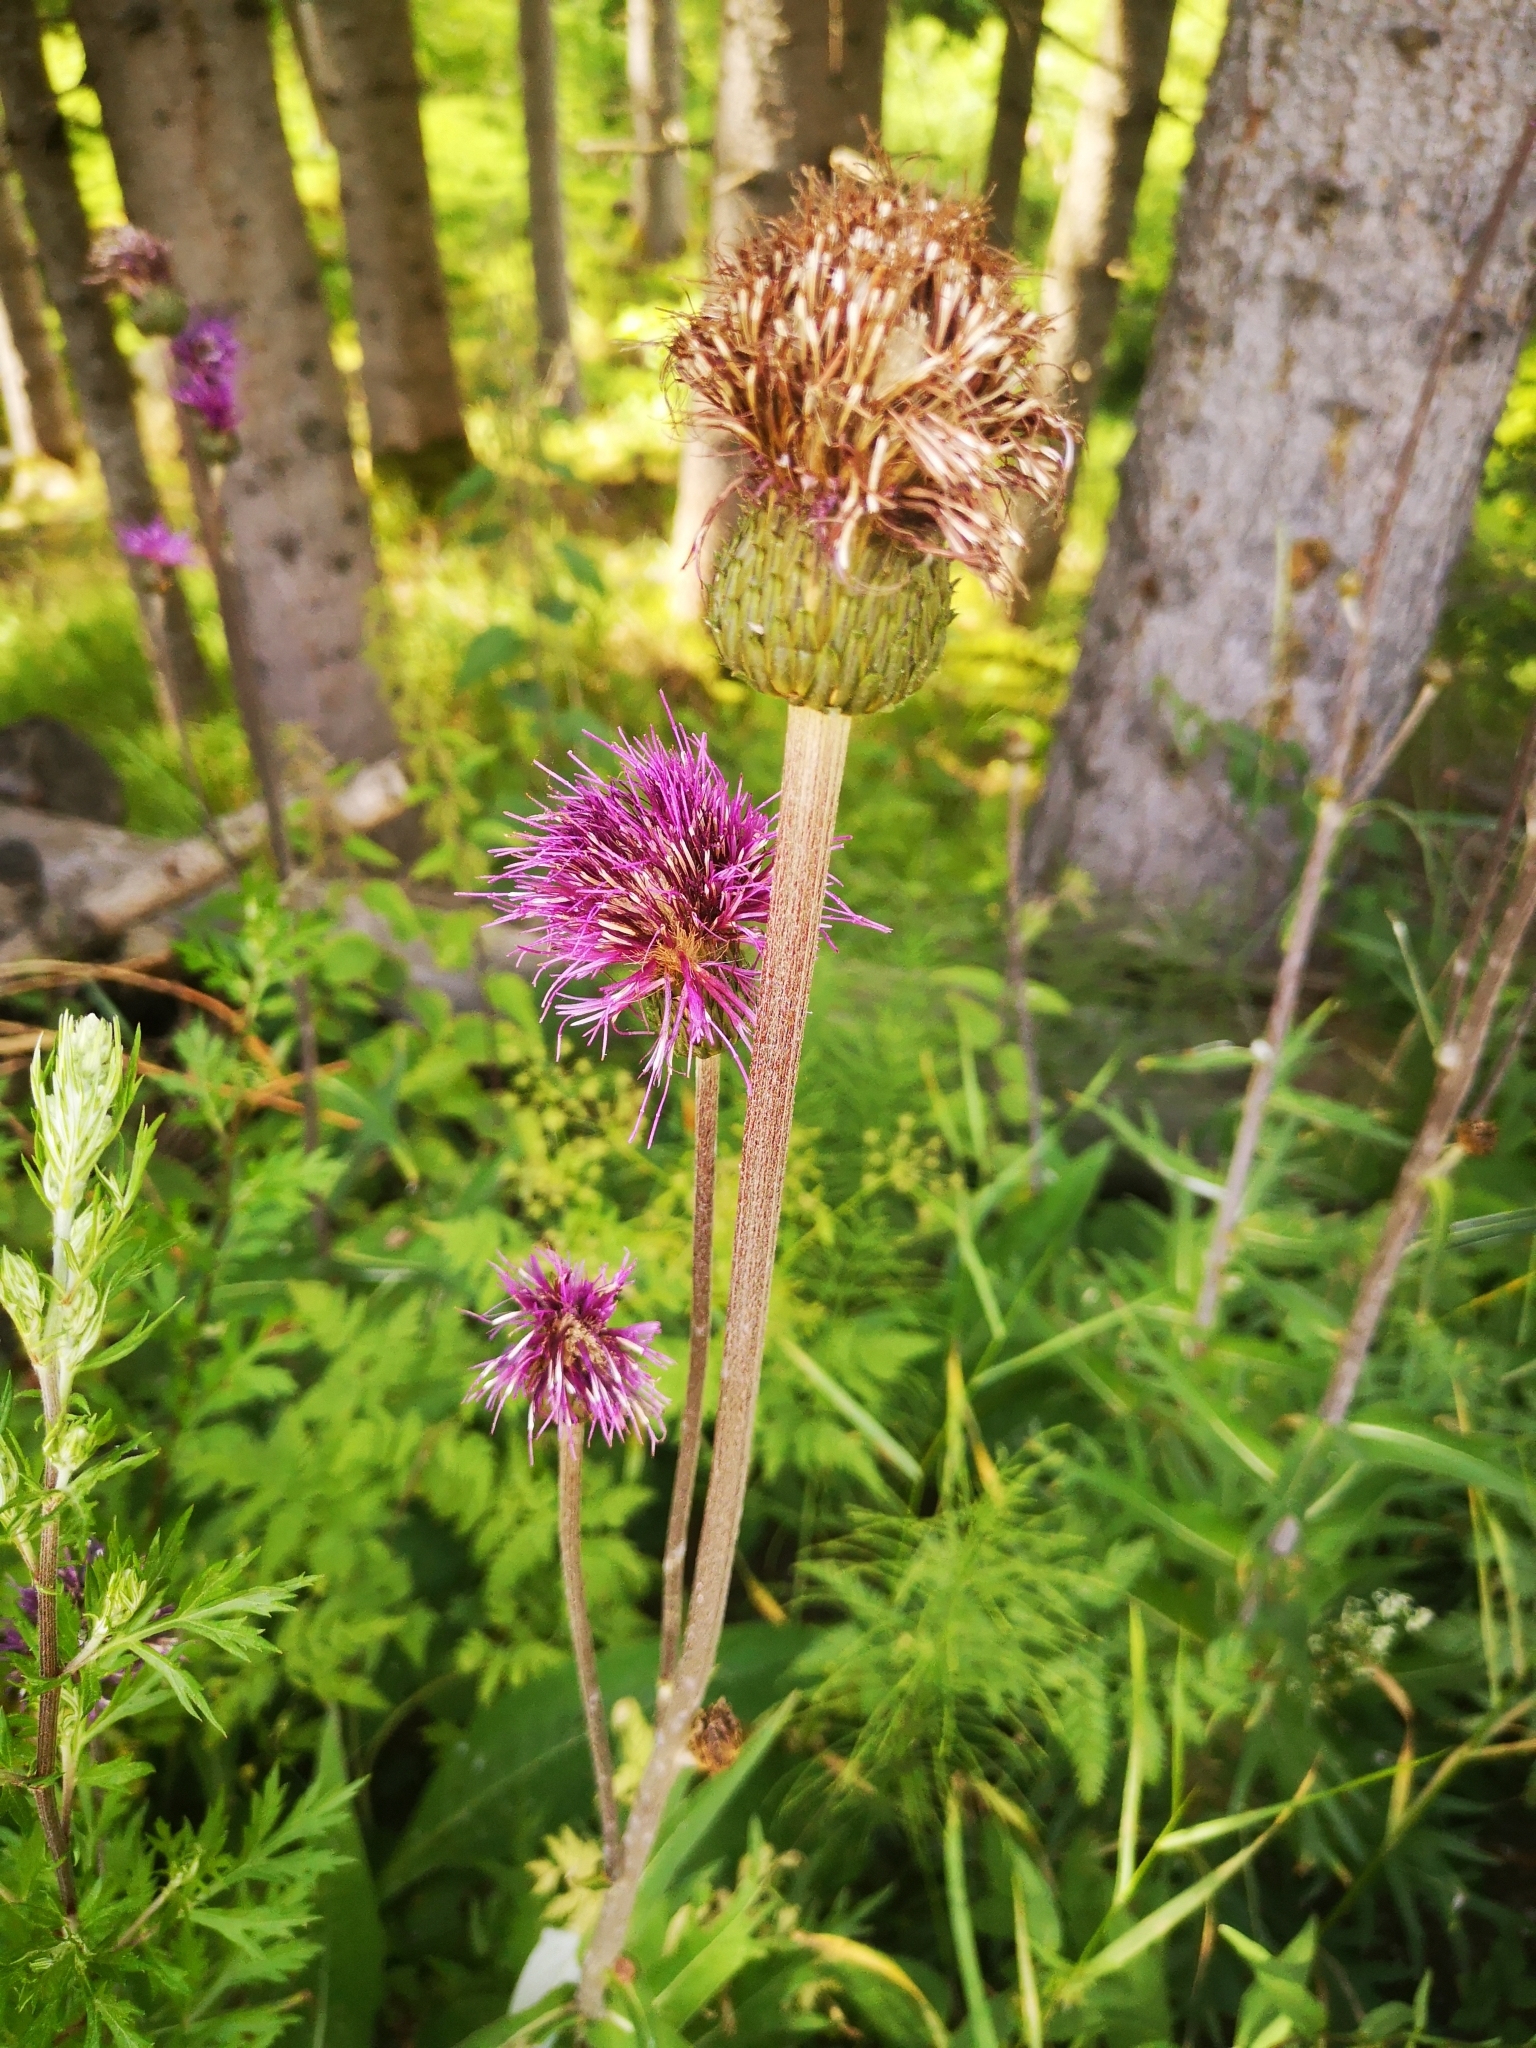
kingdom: Plantae
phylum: Tracheophyta
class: Magnoliopsida
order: Asterales
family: Asteraceae
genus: Cirsium
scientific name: Cirsium heterophyllum
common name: Melancholy thistle
